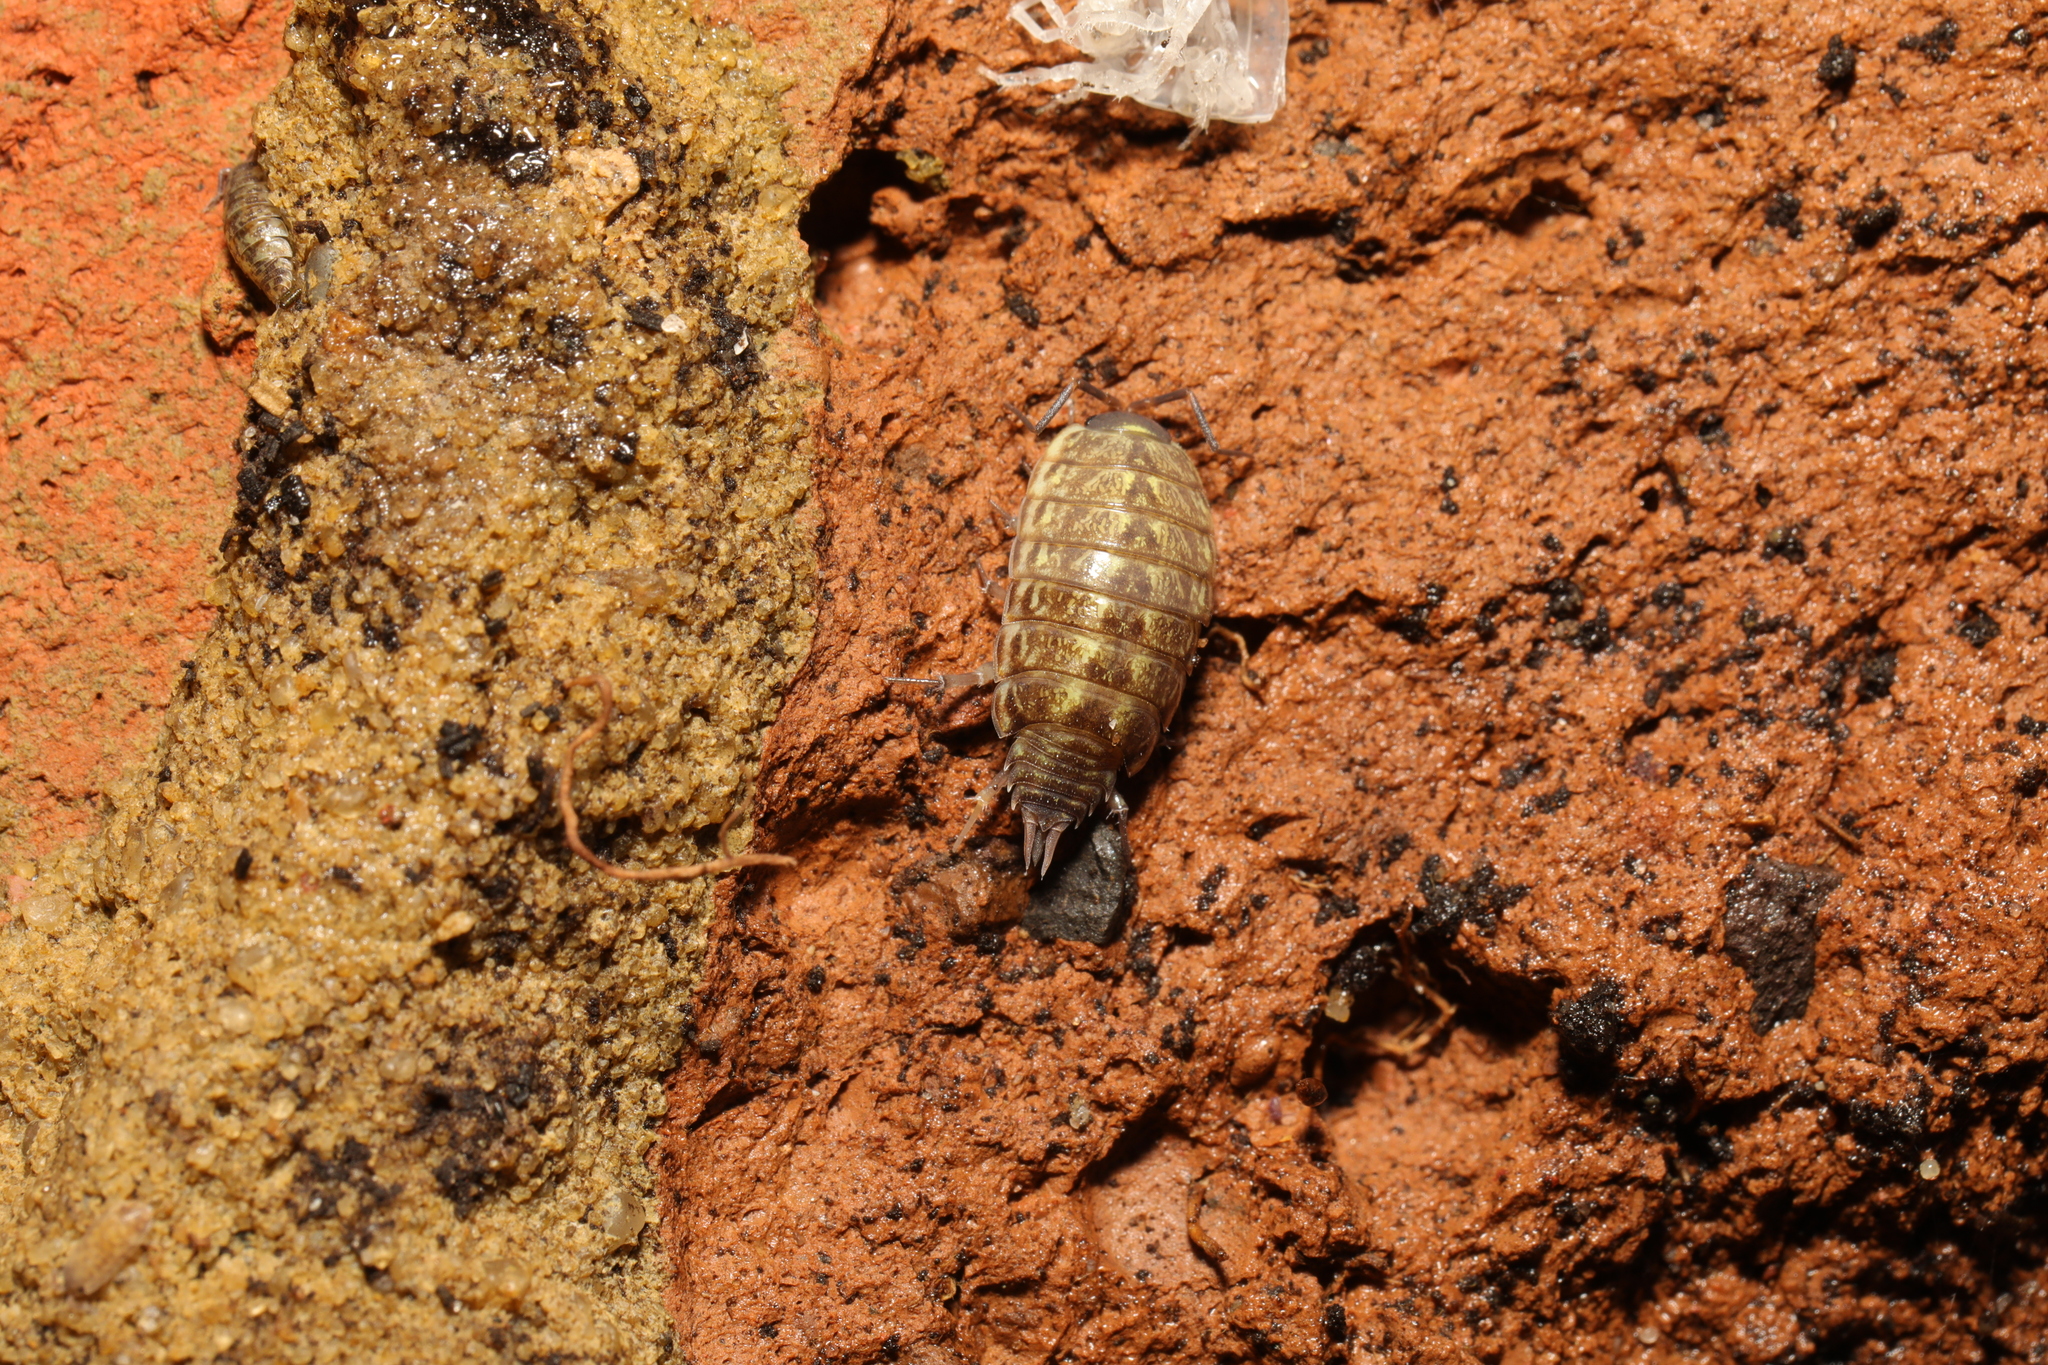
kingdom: Animalia
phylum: Arthropoda
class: Malacostraca
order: Isopoda
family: Philosciidae
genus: Philoscia
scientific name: Philoscia muscorum
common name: Common striped woodlouse
